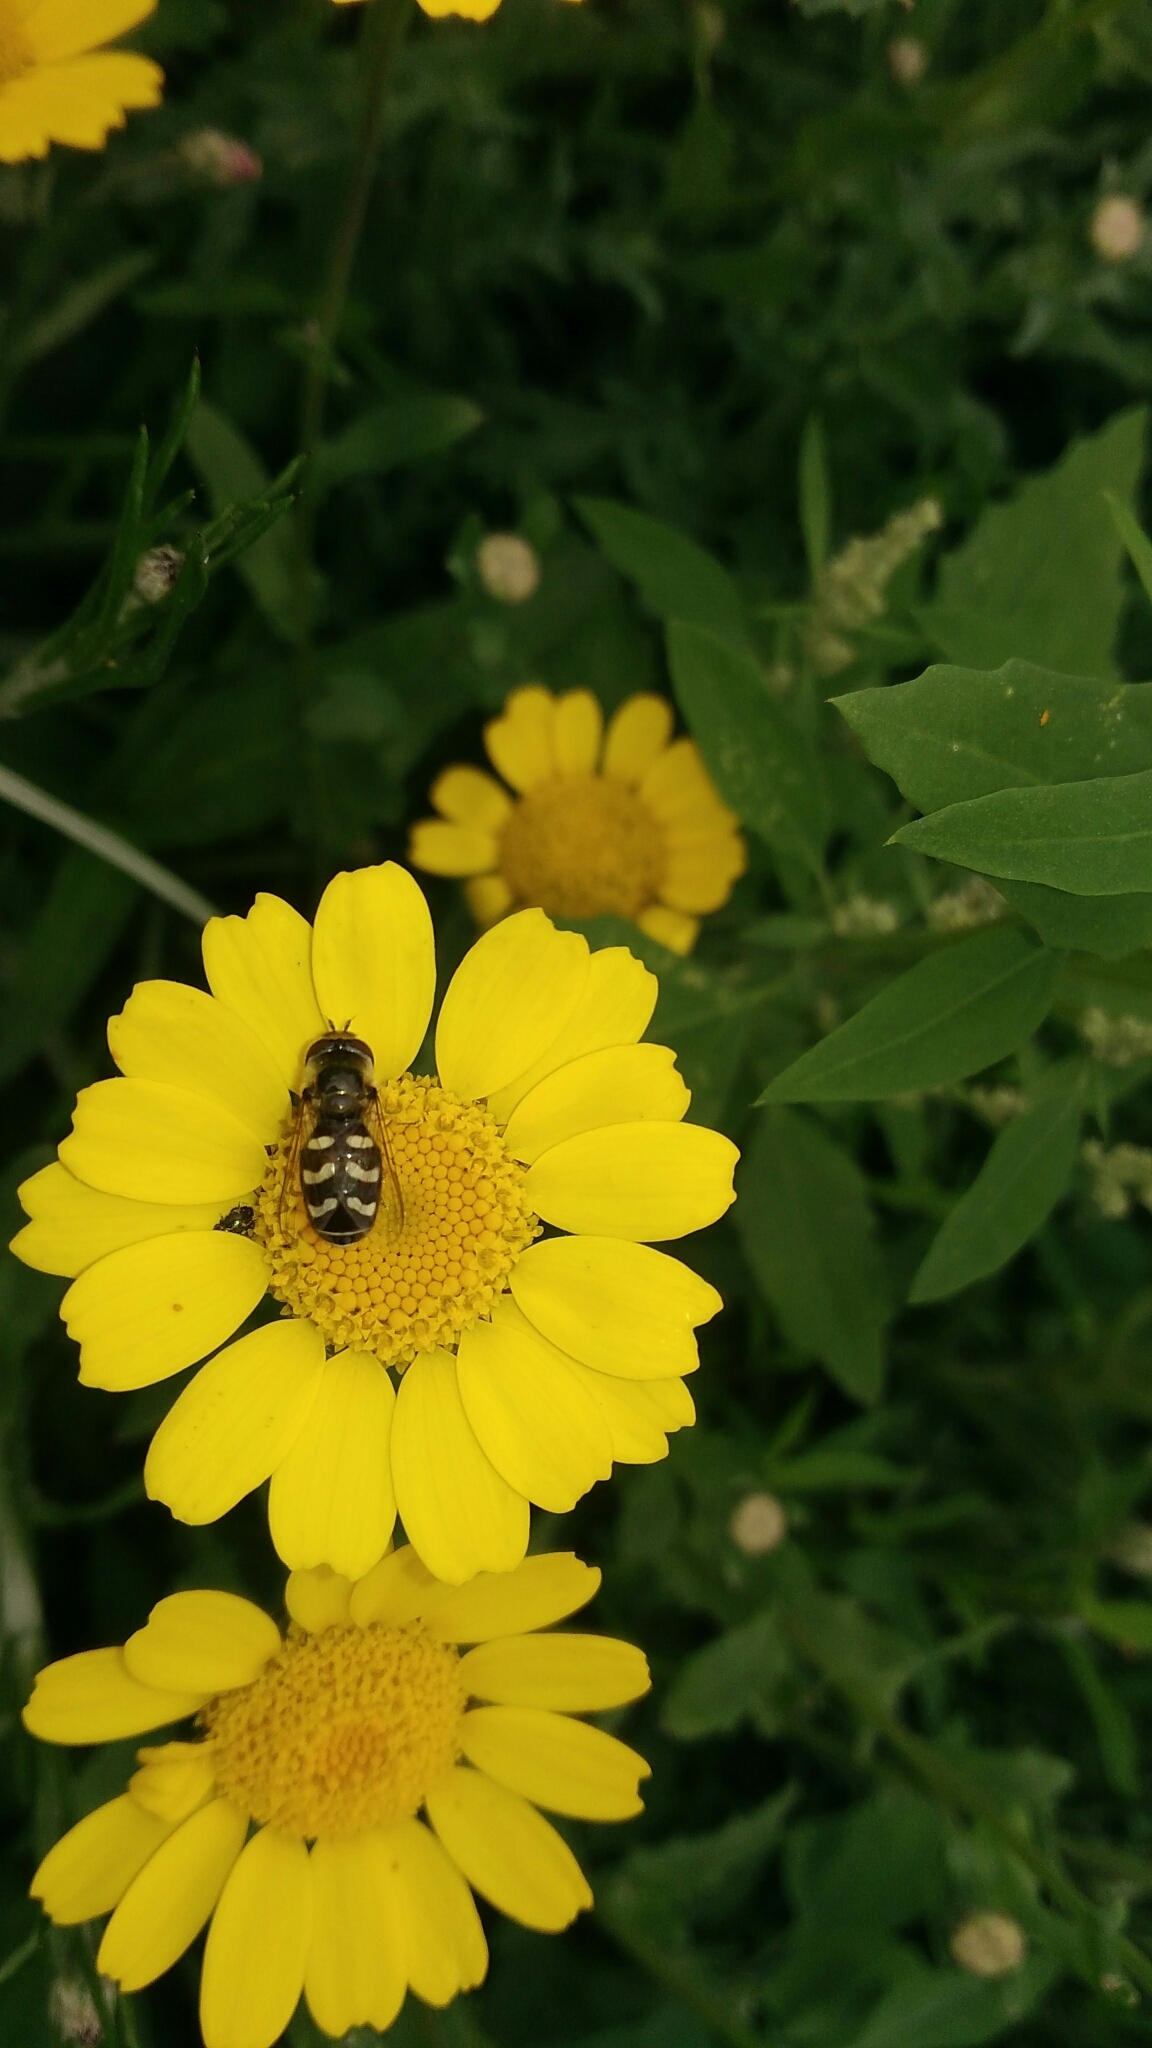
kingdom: Animalia
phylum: Arthropoda
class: Insecta
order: Diptera
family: Syrphidae
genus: Scaeva
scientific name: Scaeva pyrastri
